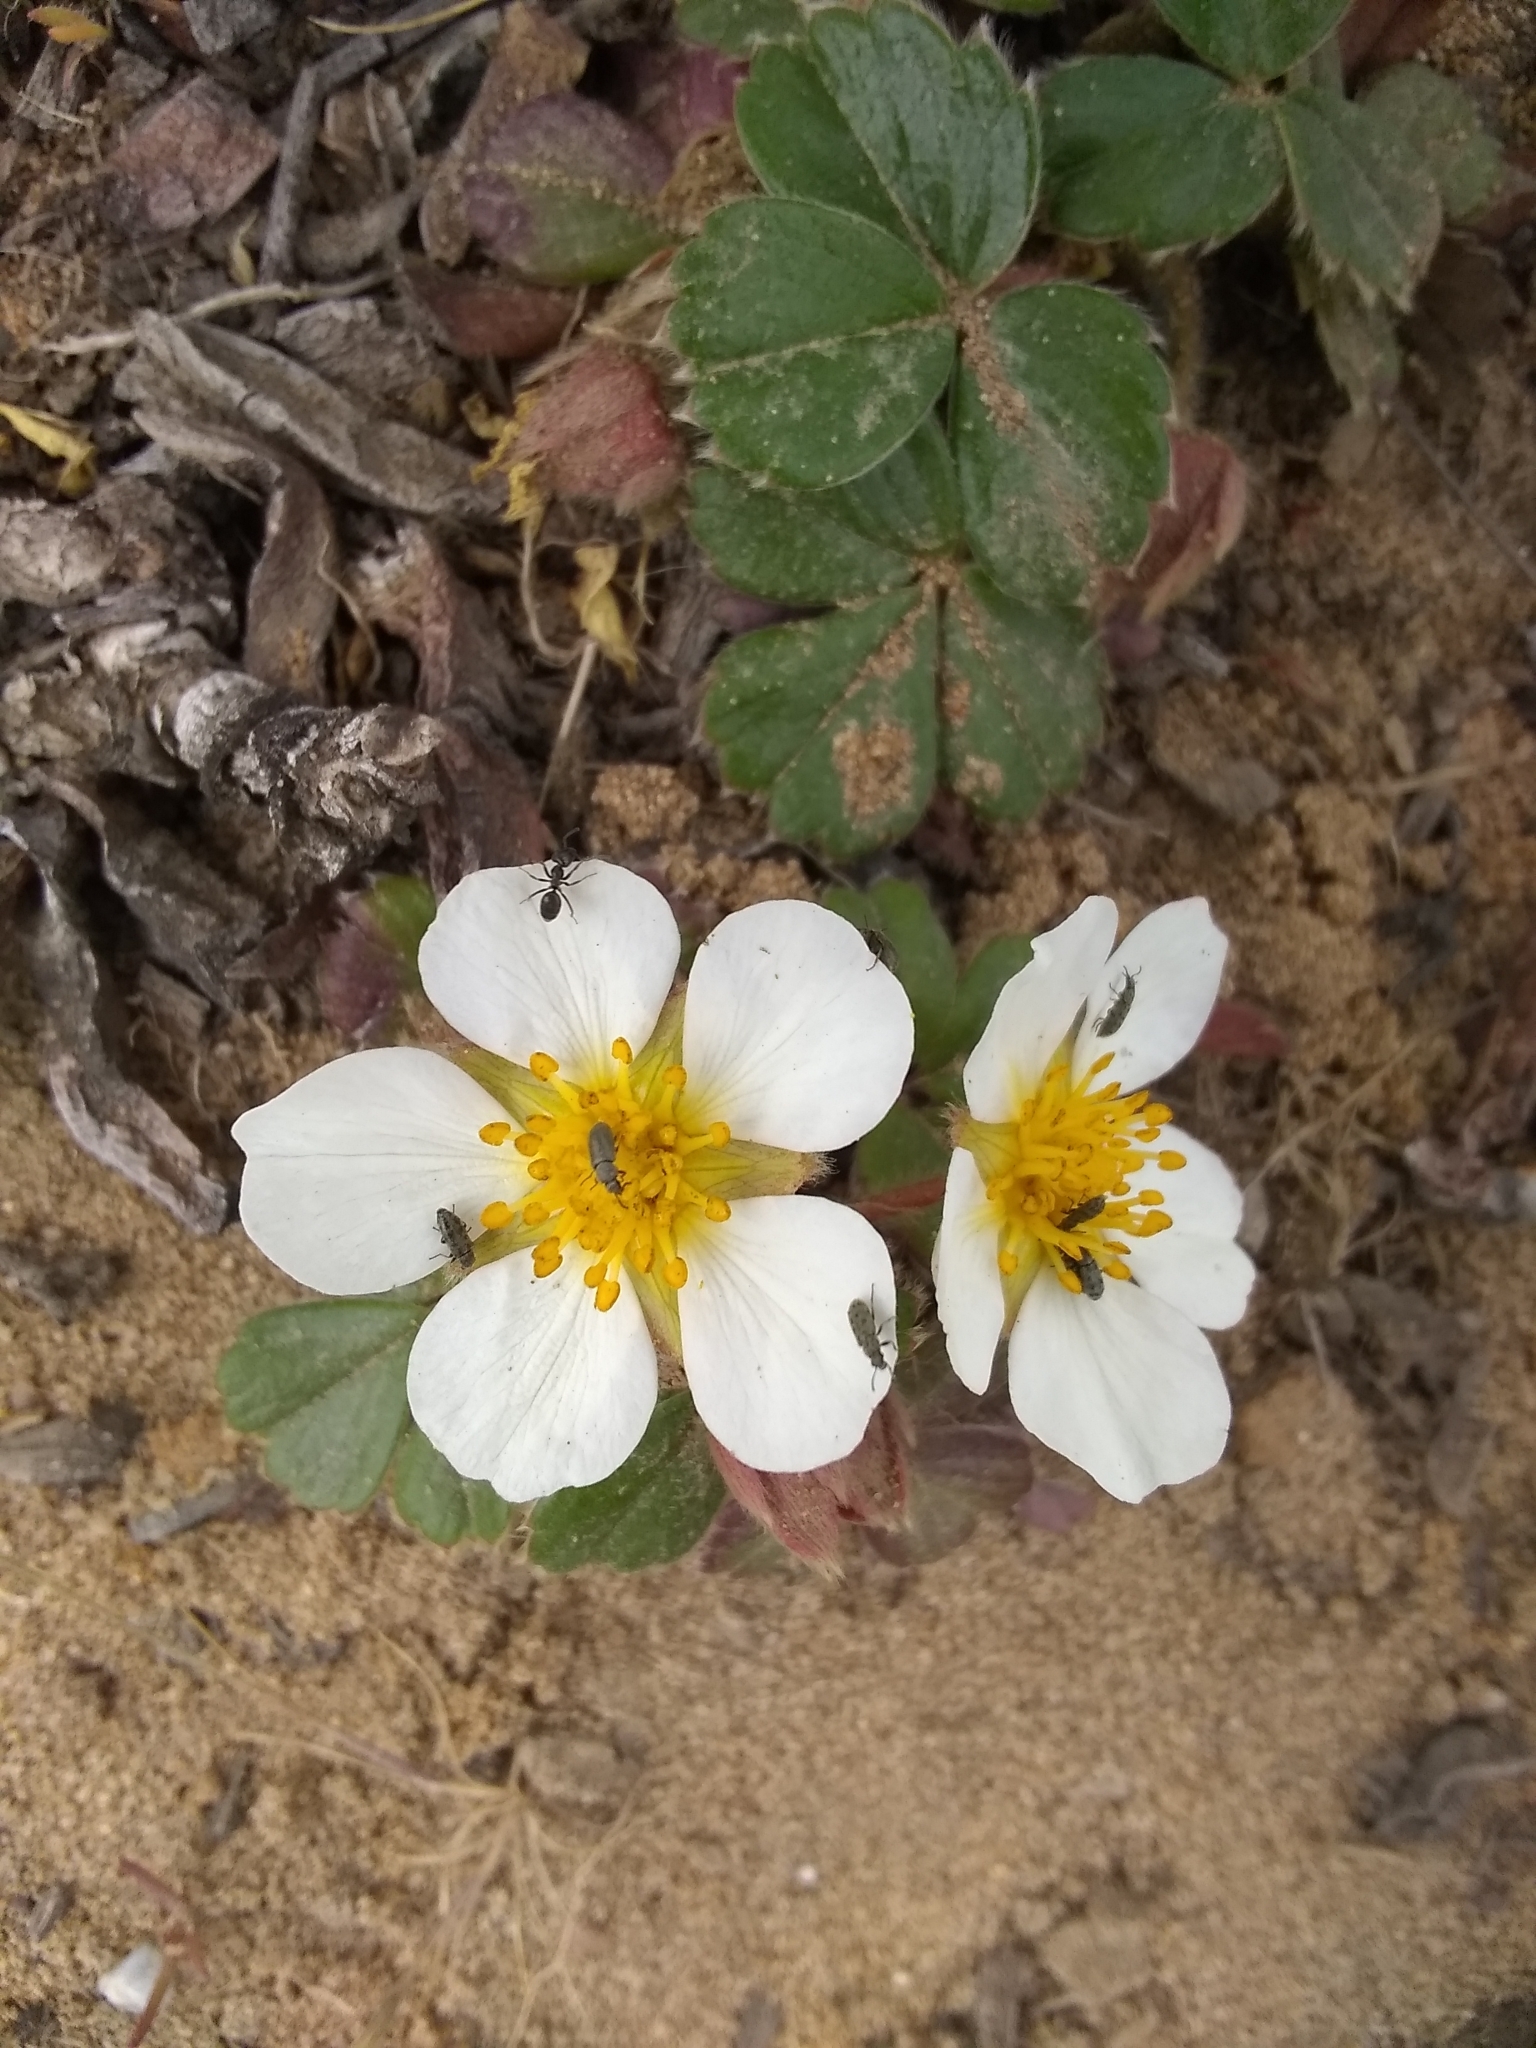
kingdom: Plantae
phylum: Tracheophyta
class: Magnoliopsida
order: Rosales
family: Rosaceae
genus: Fragaria
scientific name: Fragaria chiloensis
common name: Beach strawberry
